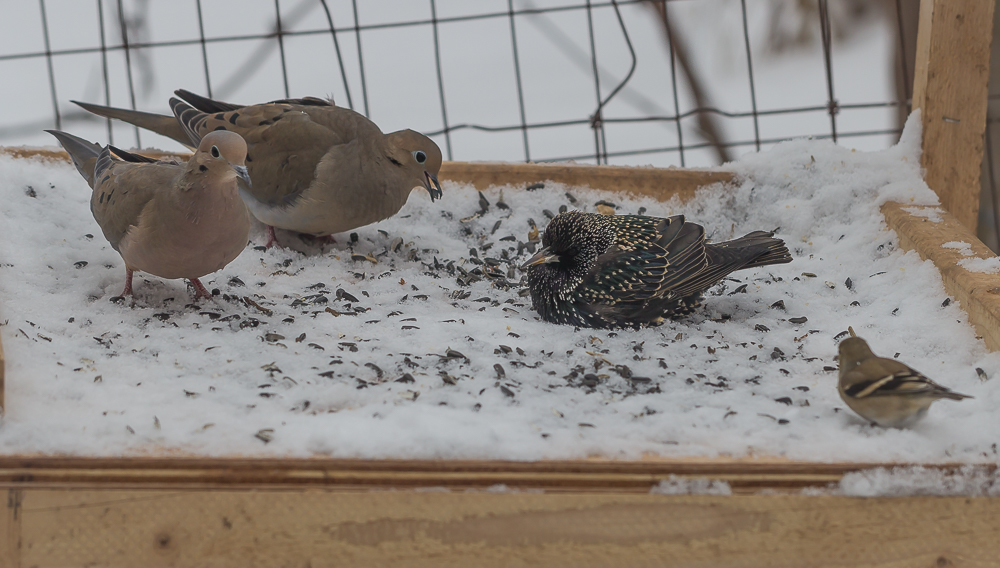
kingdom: Animalia
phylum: Chordata
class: Aves
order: Passeriformes
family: Sturnidae
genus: Sturnus
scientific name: Sturnus vulgaris
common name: Common starling
